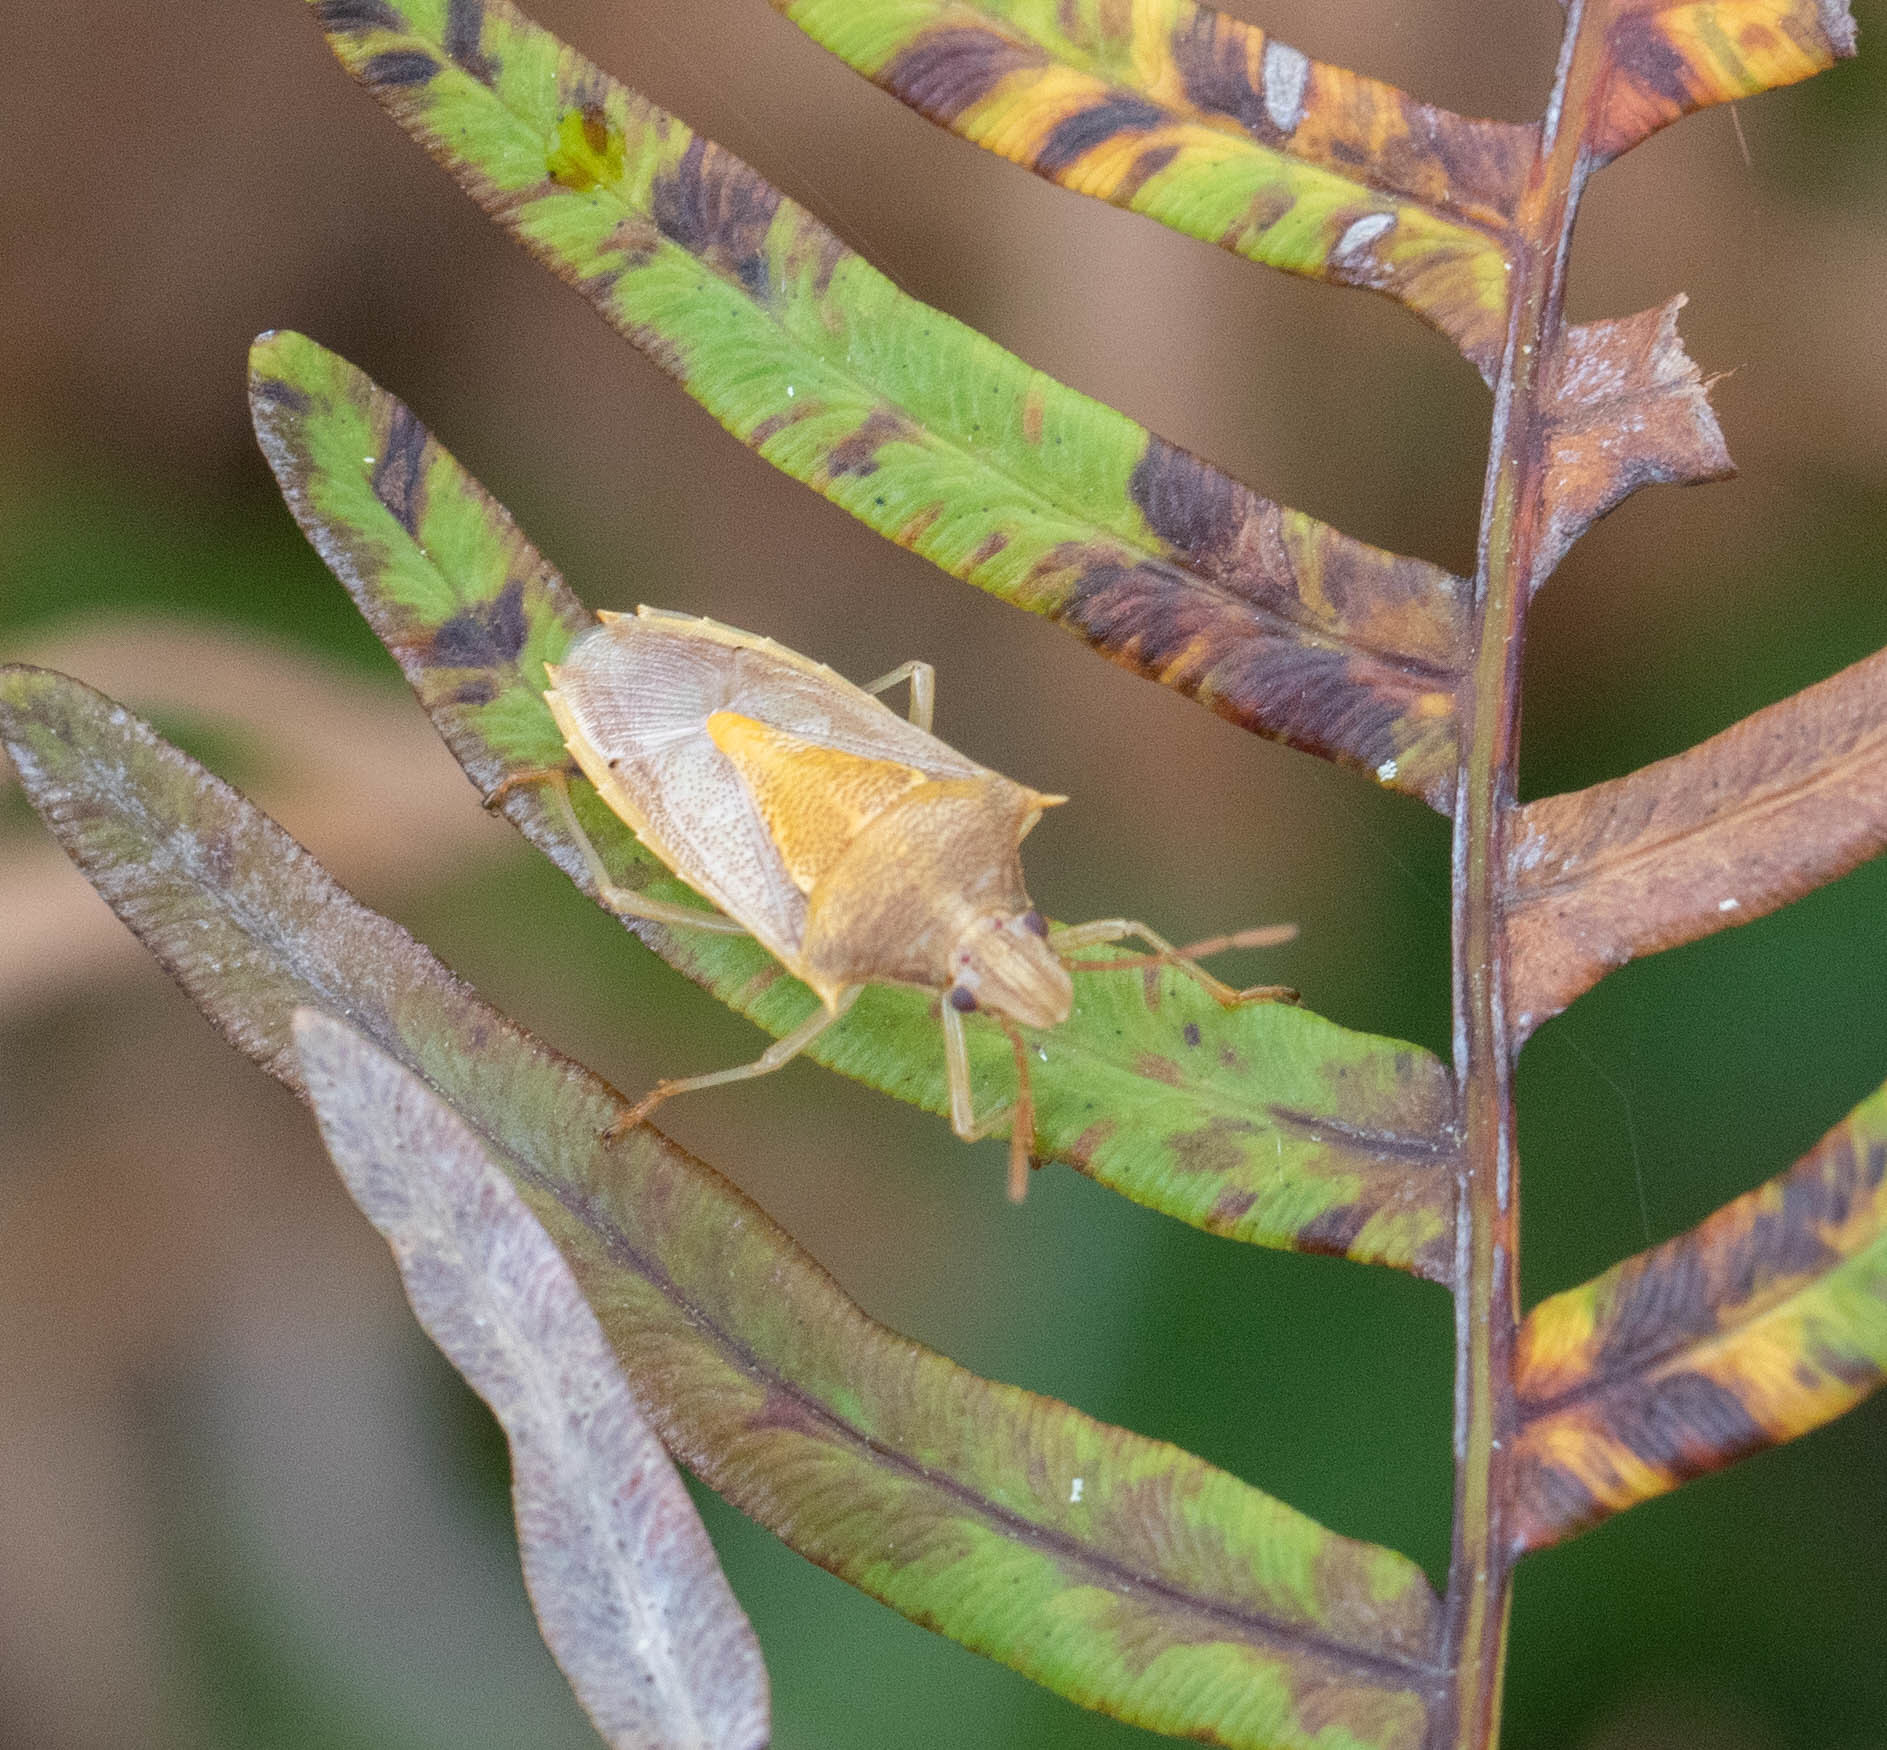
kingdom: Animalia
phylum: Arthropoda
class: Insecta
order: Hemiptera
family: Pentatomidae
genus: Oebalus
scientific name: Oebalus pugnax
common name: Rice stink bug
